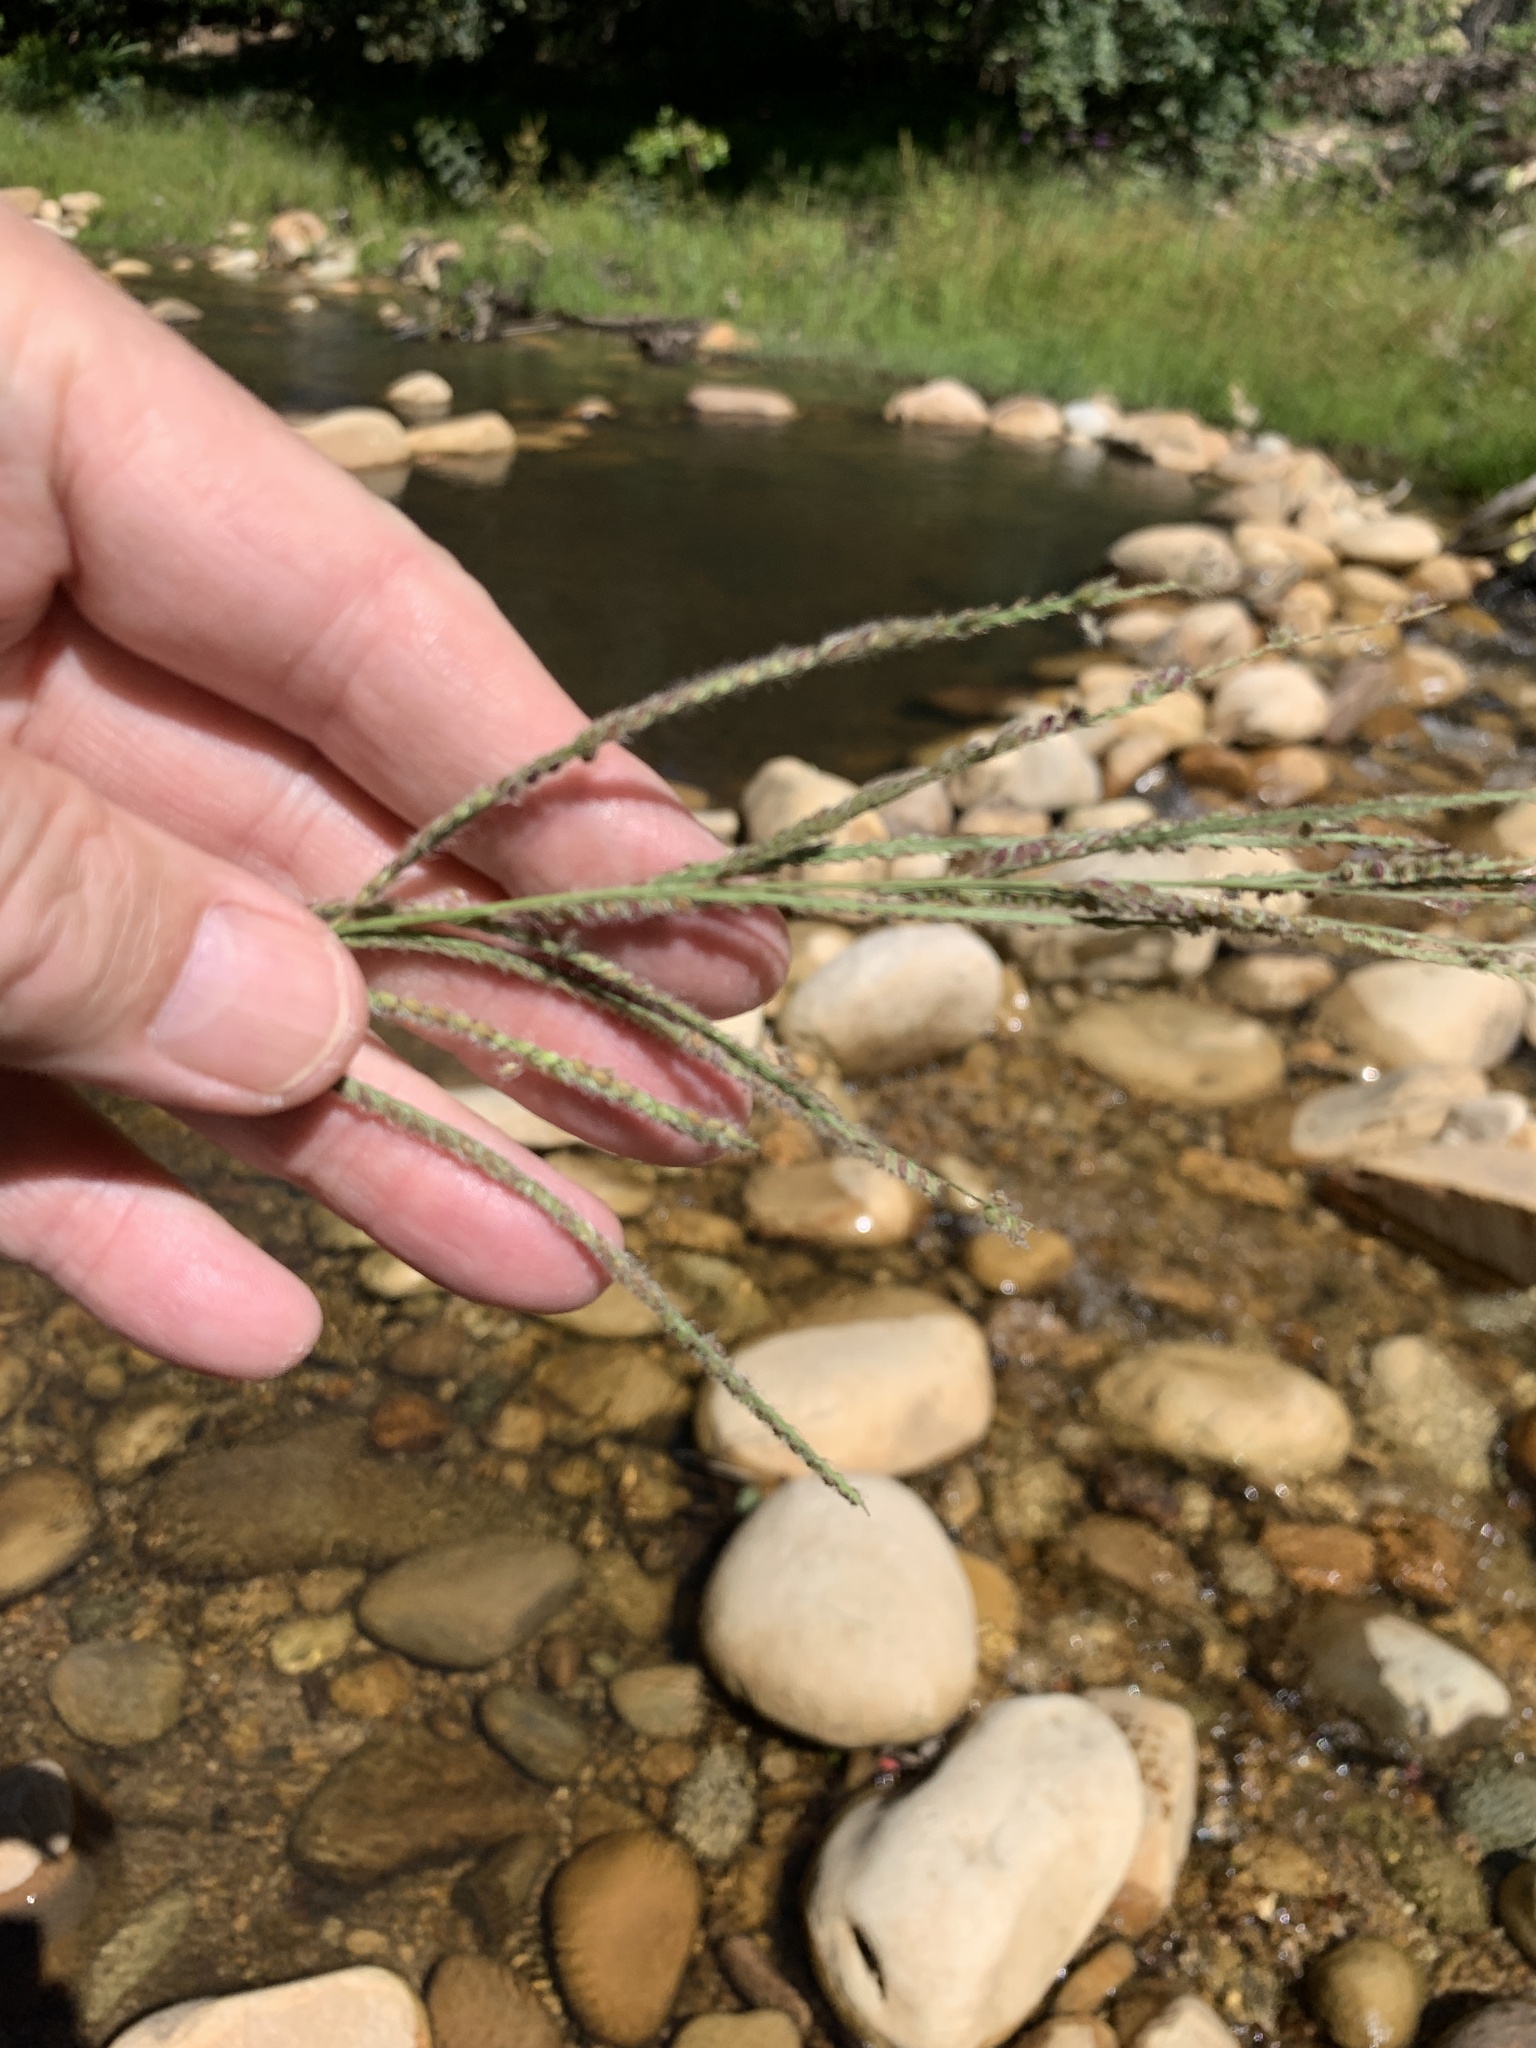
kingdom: Plantae
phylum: Tracheophyta
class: Liliopsida
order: Poales
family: Poaceae
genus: Paspalum
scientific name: Paspalum urvillei
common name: Vasey's grass
